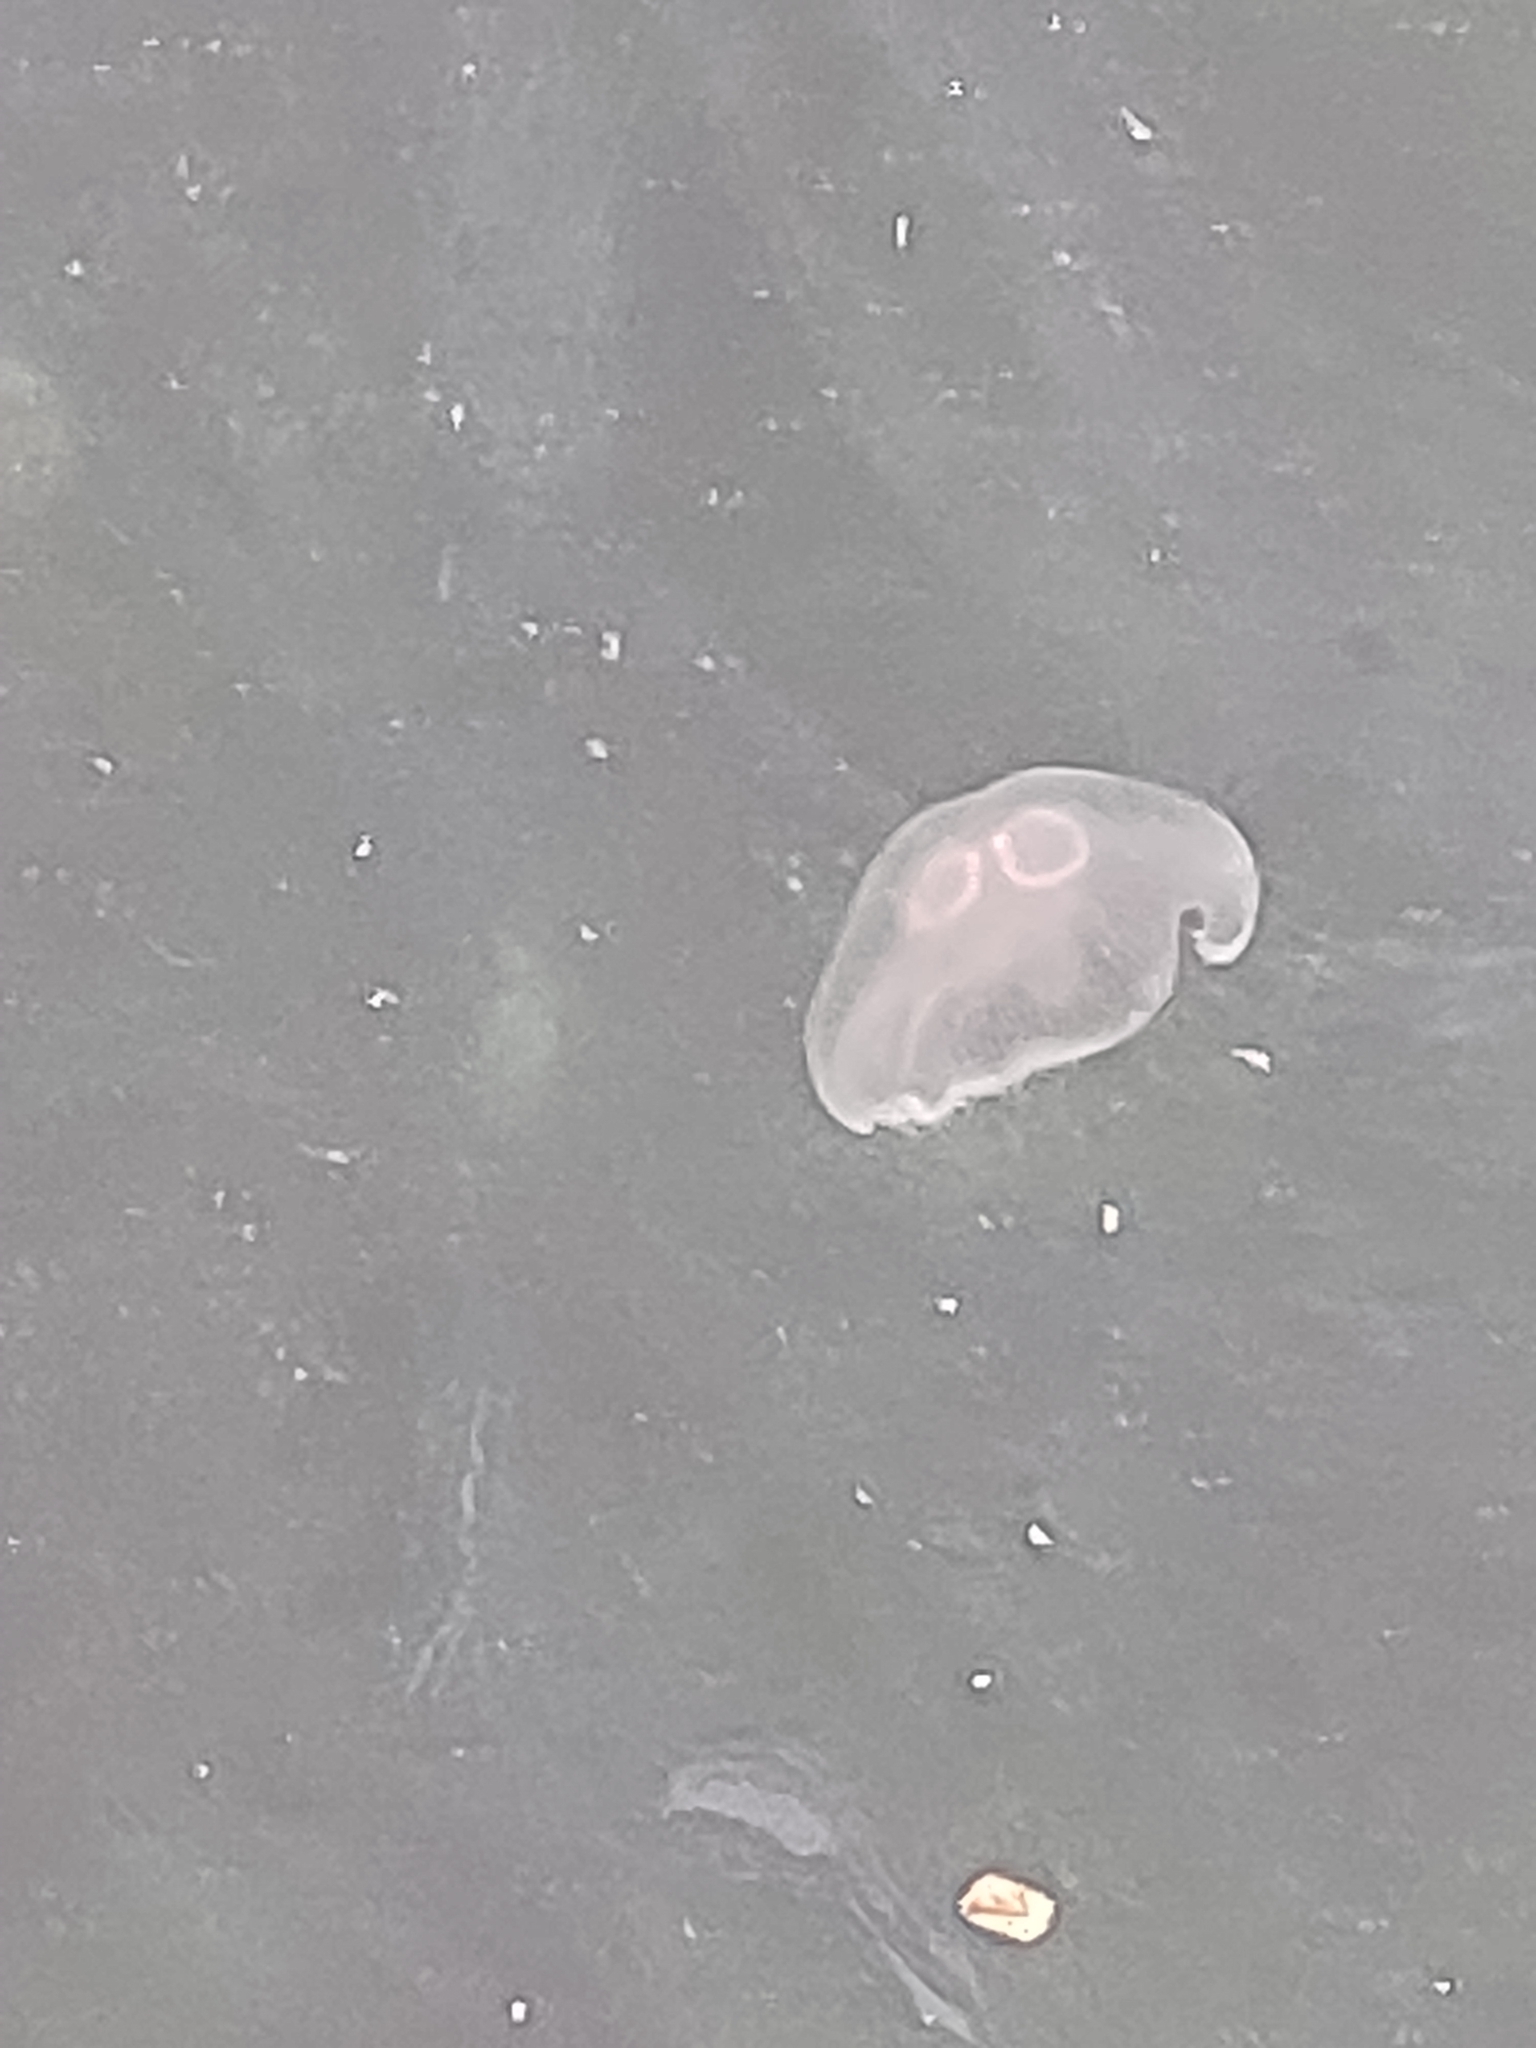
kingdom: Animalia
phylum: Cnidaria
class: Scyphozoa
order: Semaeostomeae
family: Ulmaridae
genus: Aurelia
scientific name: Aurelia aurita
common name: Moon jellyfish
